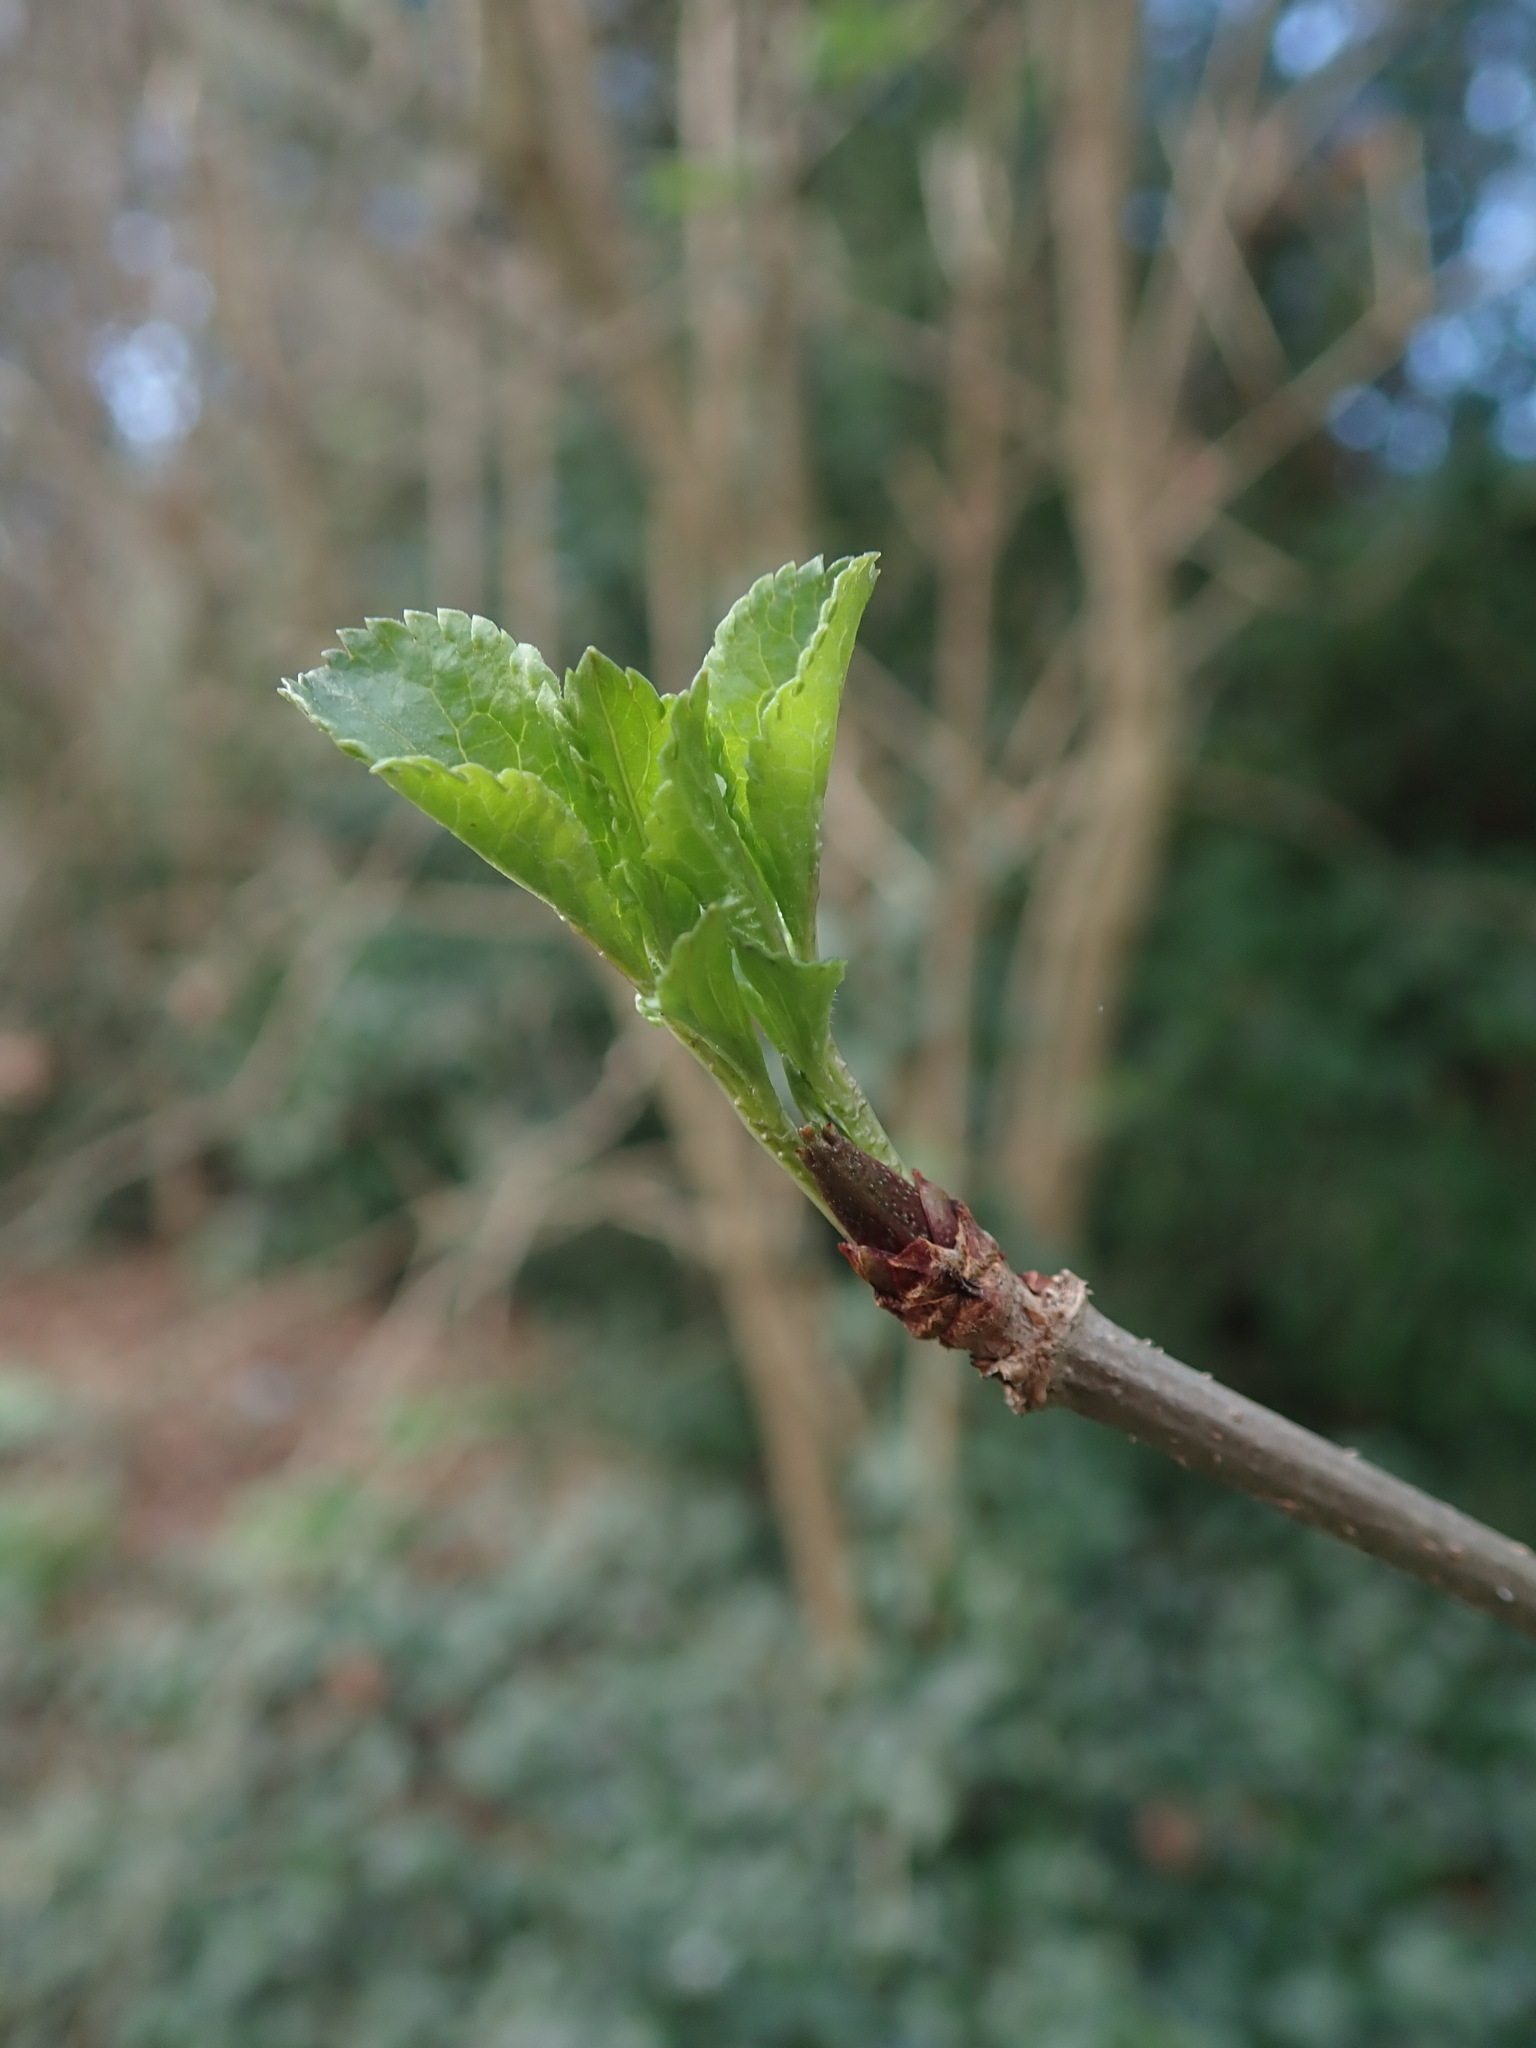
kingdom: Plantae
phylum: Tracheophyta
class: Magnoliopsida
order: Dipsacales
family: Viburnaceae
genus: Sambucus
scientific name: Sambucus nigra
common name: Elder
